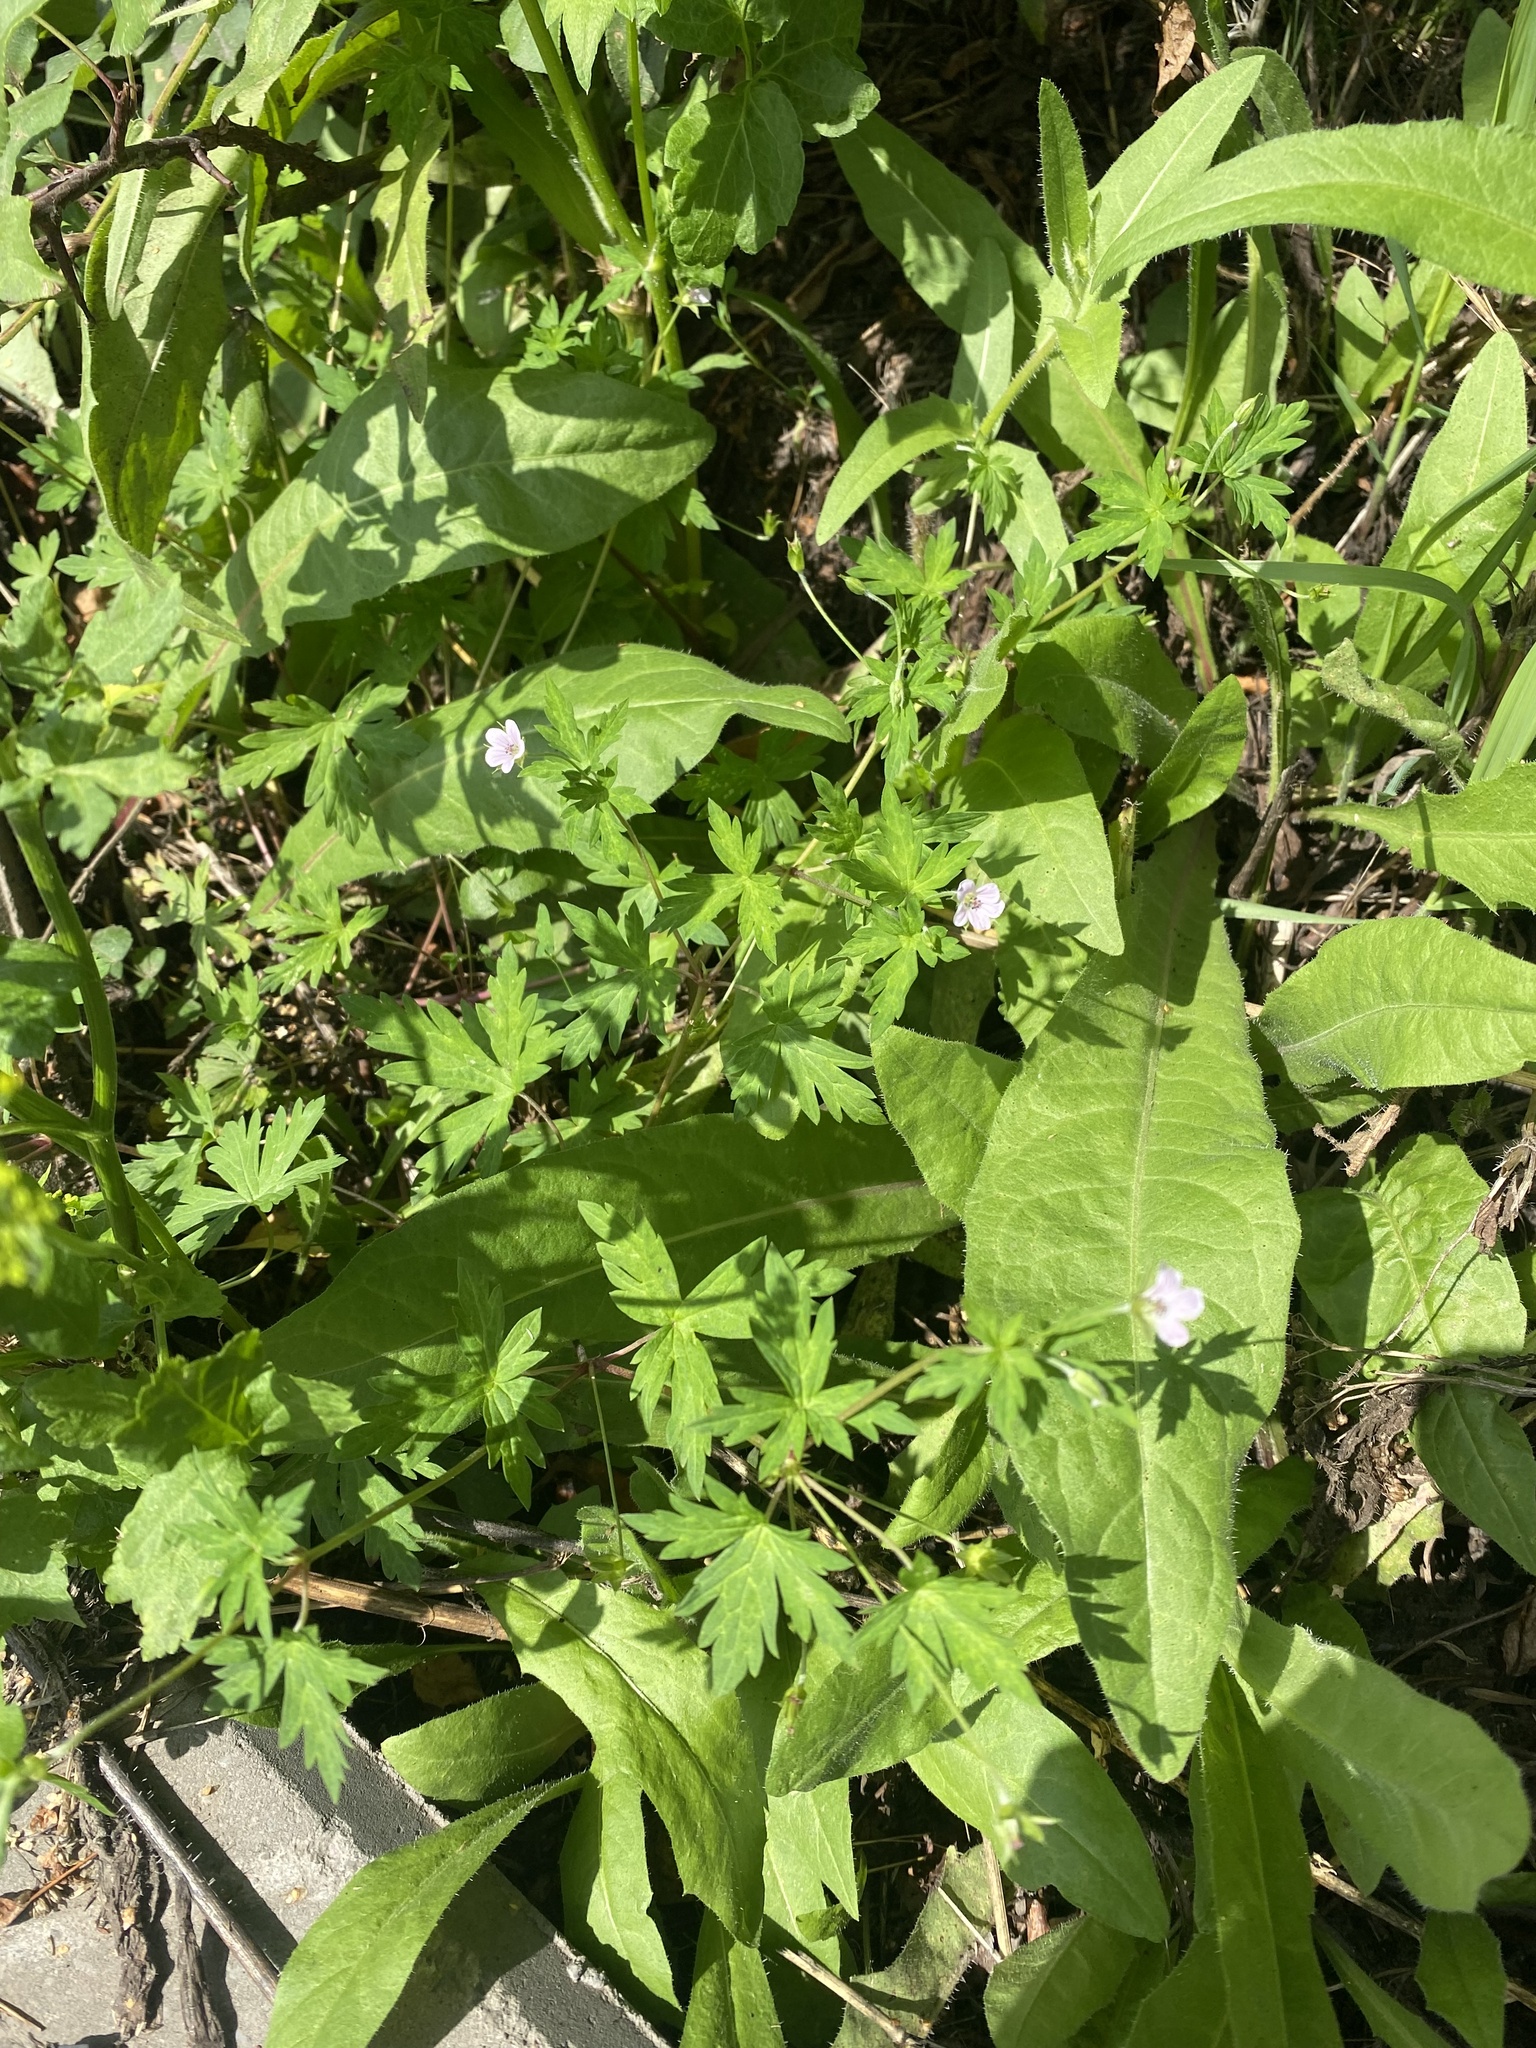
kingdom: Plantae
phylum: Tracheophyta
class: Magnoliopsida
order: Geraniales
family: Geraniaceae
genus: Geranium
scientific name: Geranium sibiricum
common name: Siberian crane's-bill
